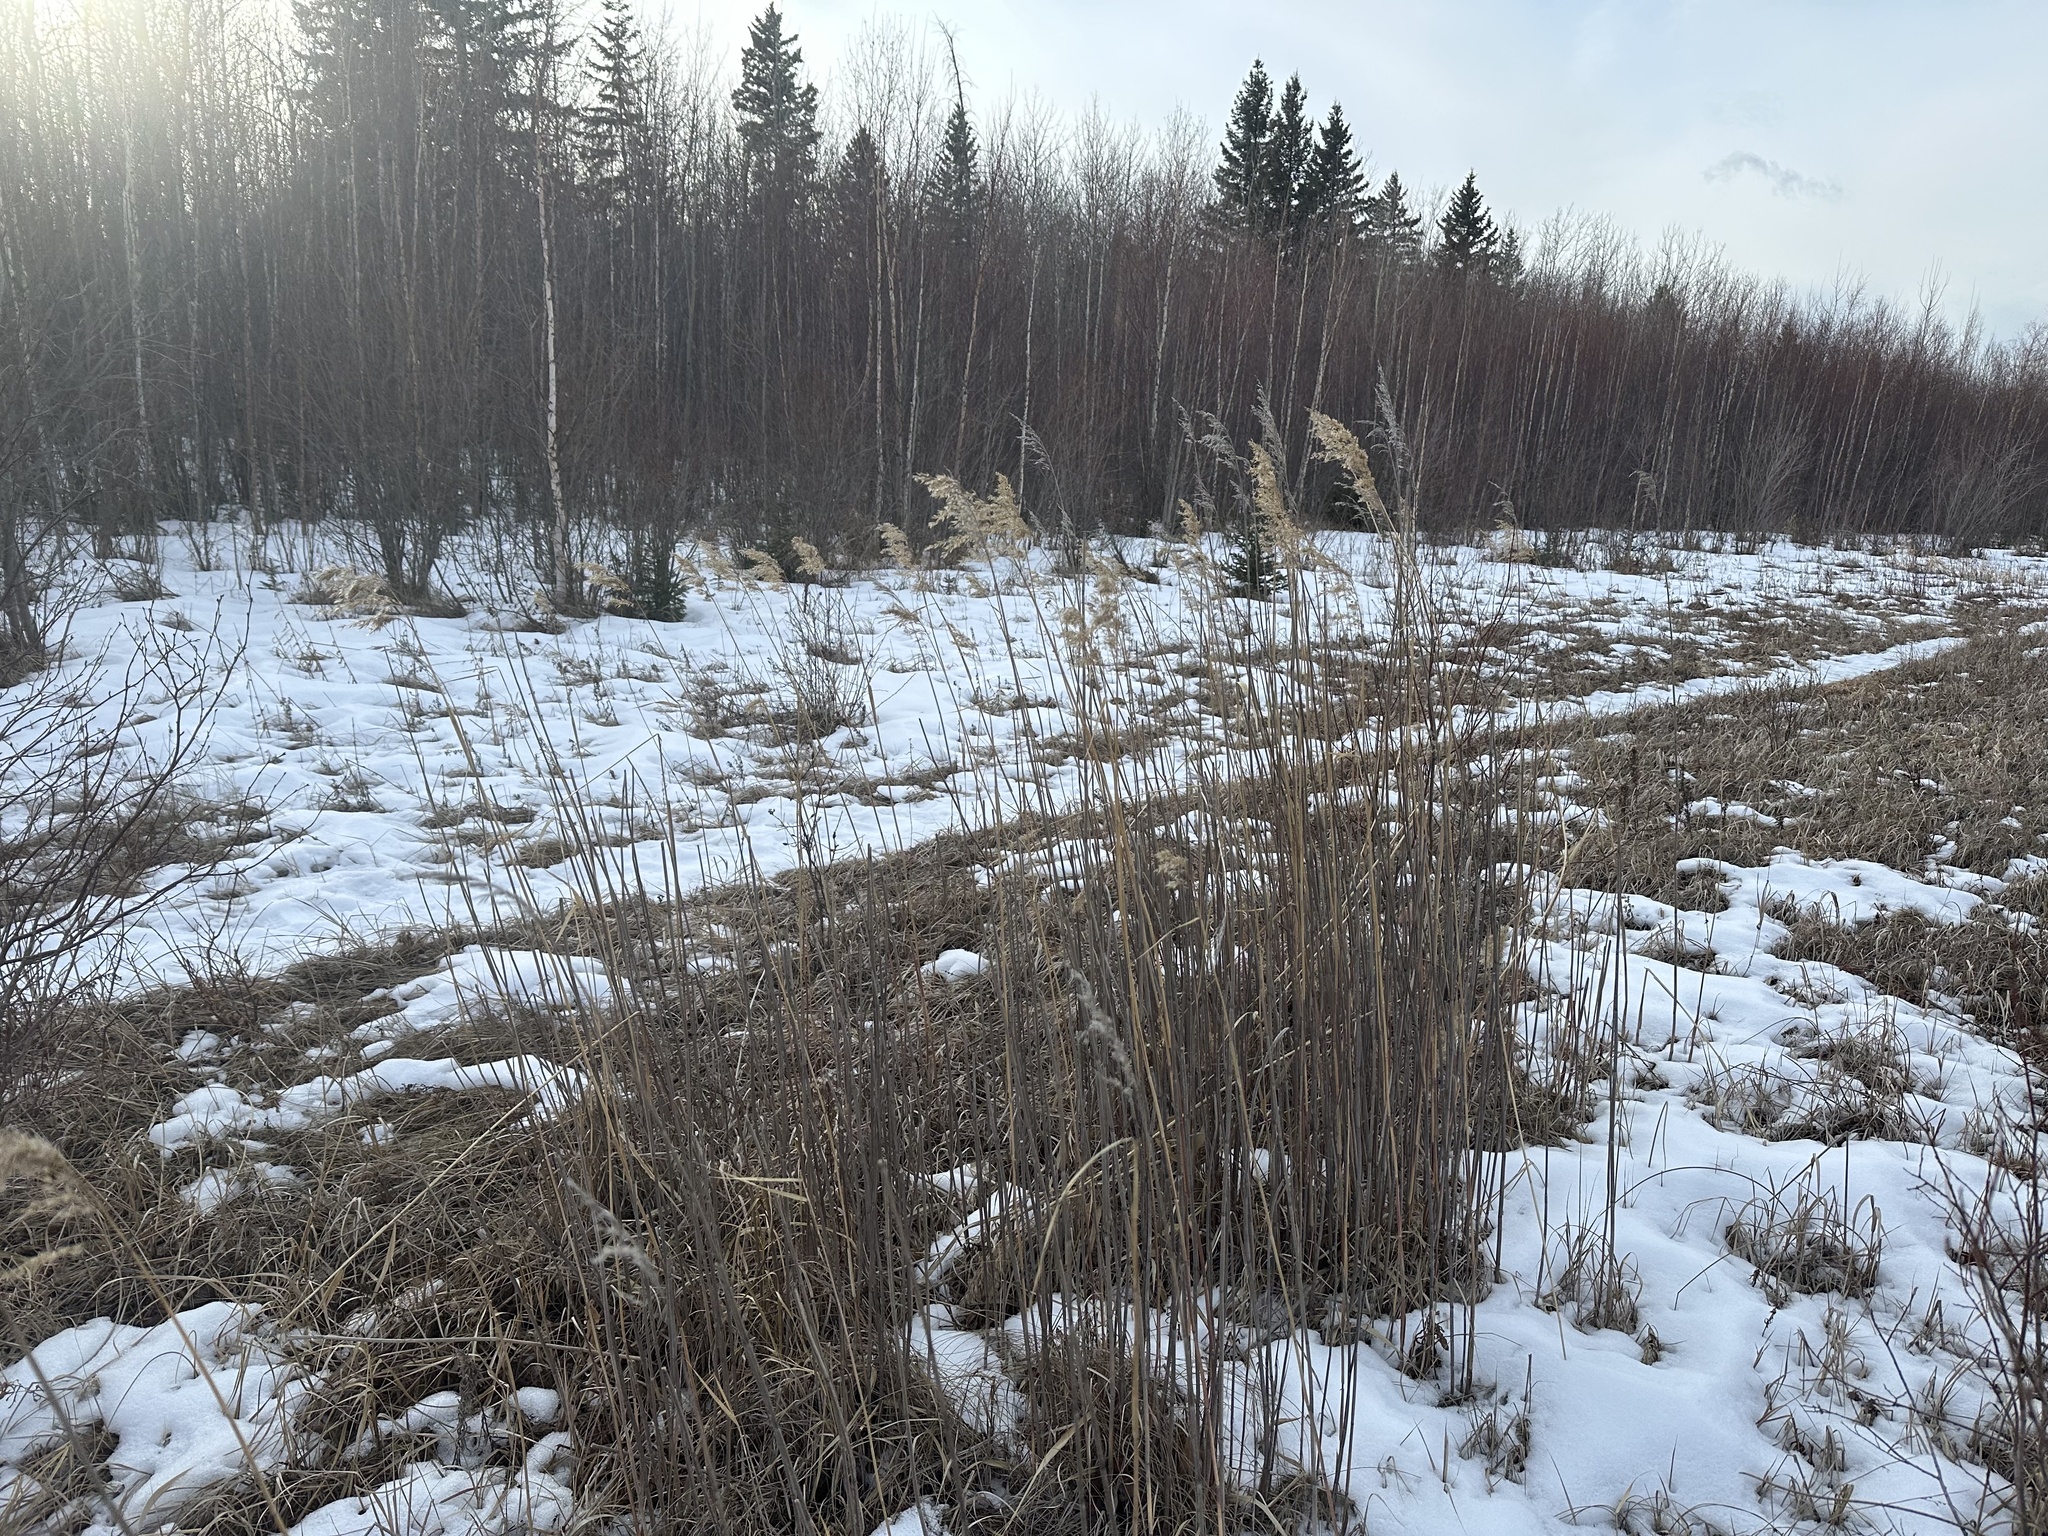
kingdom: Plantae
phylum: Tracheophyta
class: Liliopsida
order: Poales
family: Poaceae
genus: Phragmites
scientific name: Phragmites australis
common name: Common reed
